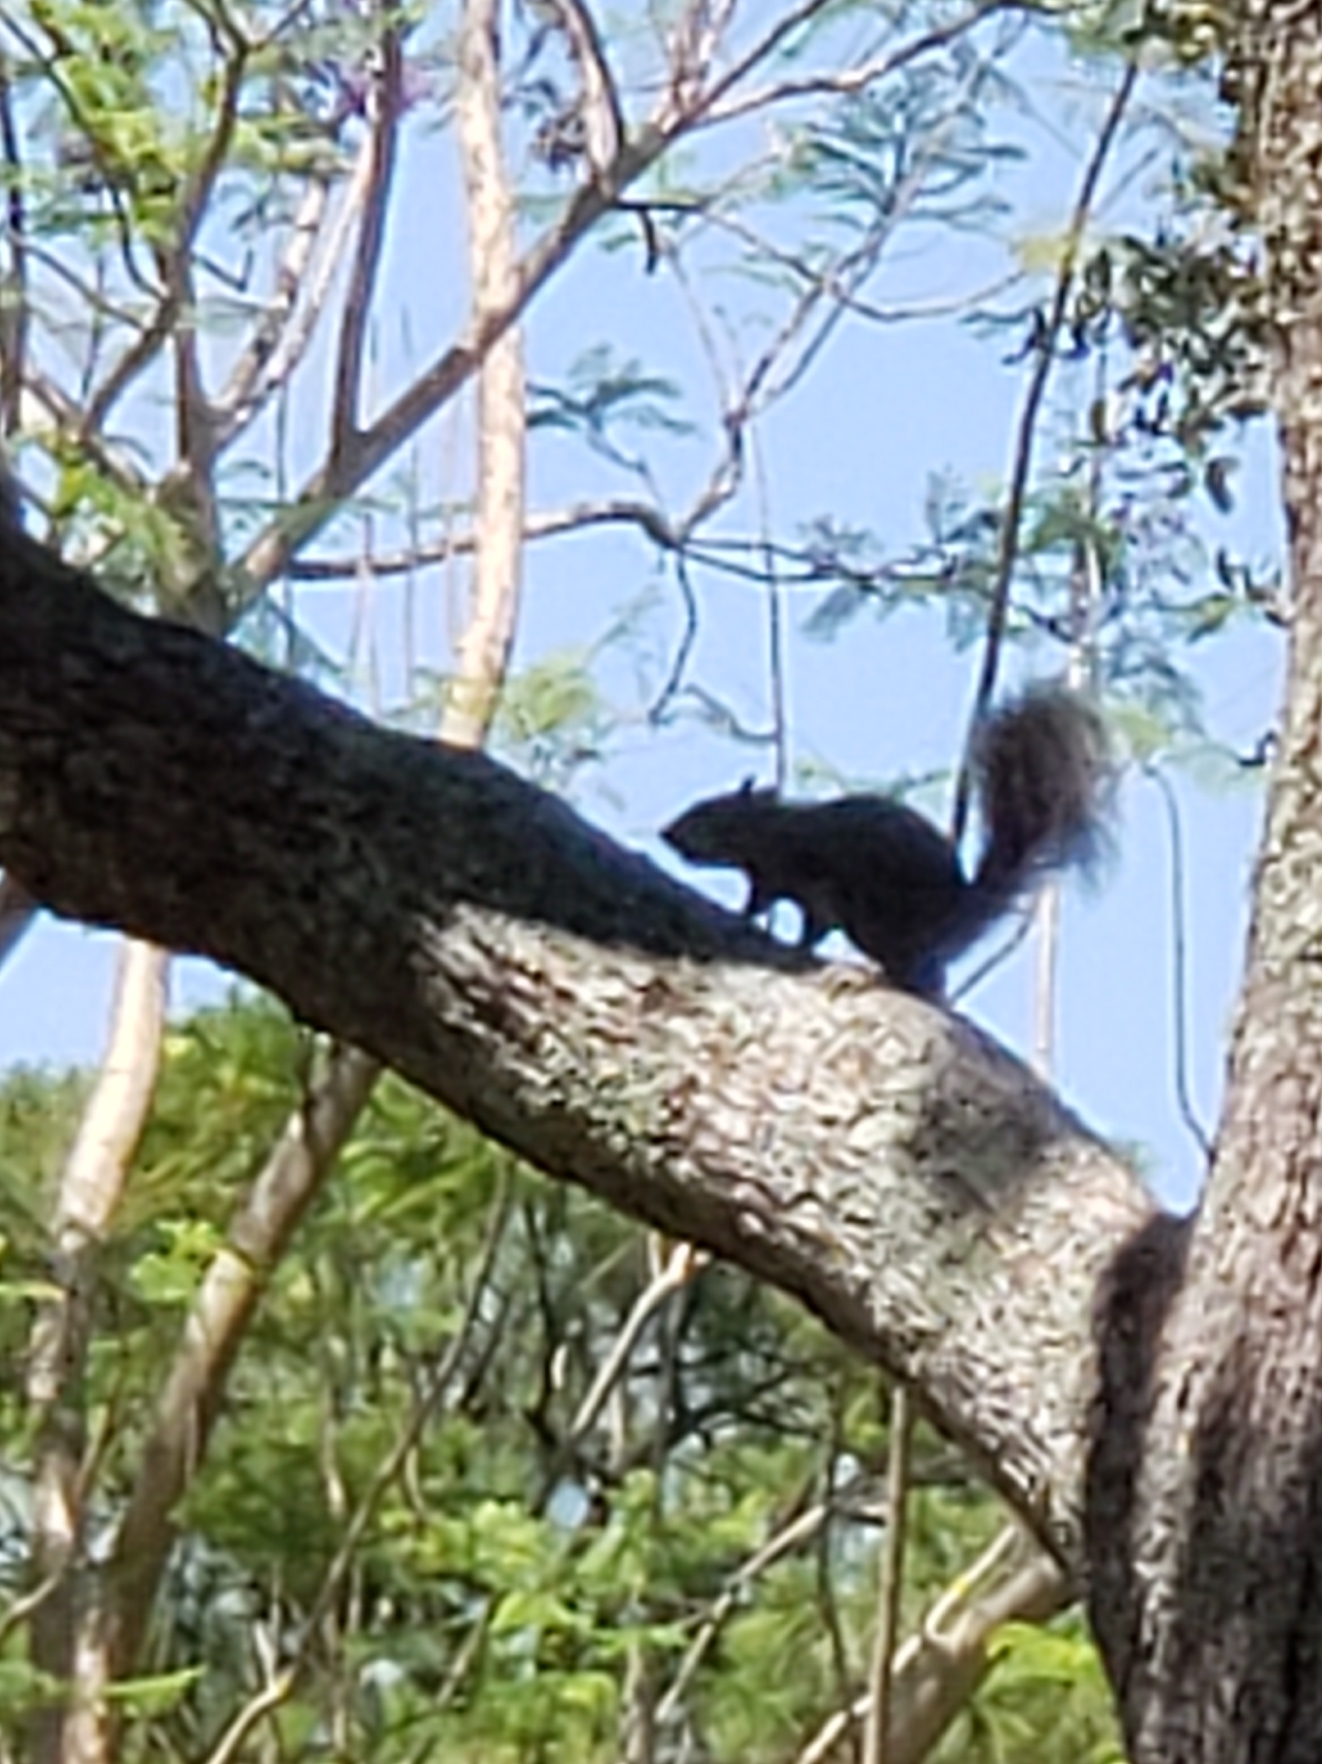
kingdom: Animalia
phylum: Chordata
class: Mammalia
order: Rodentia
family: Sciuridae
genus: Sciurus
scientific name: Sciurus carolinensis
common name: Eastern gray squirrel
